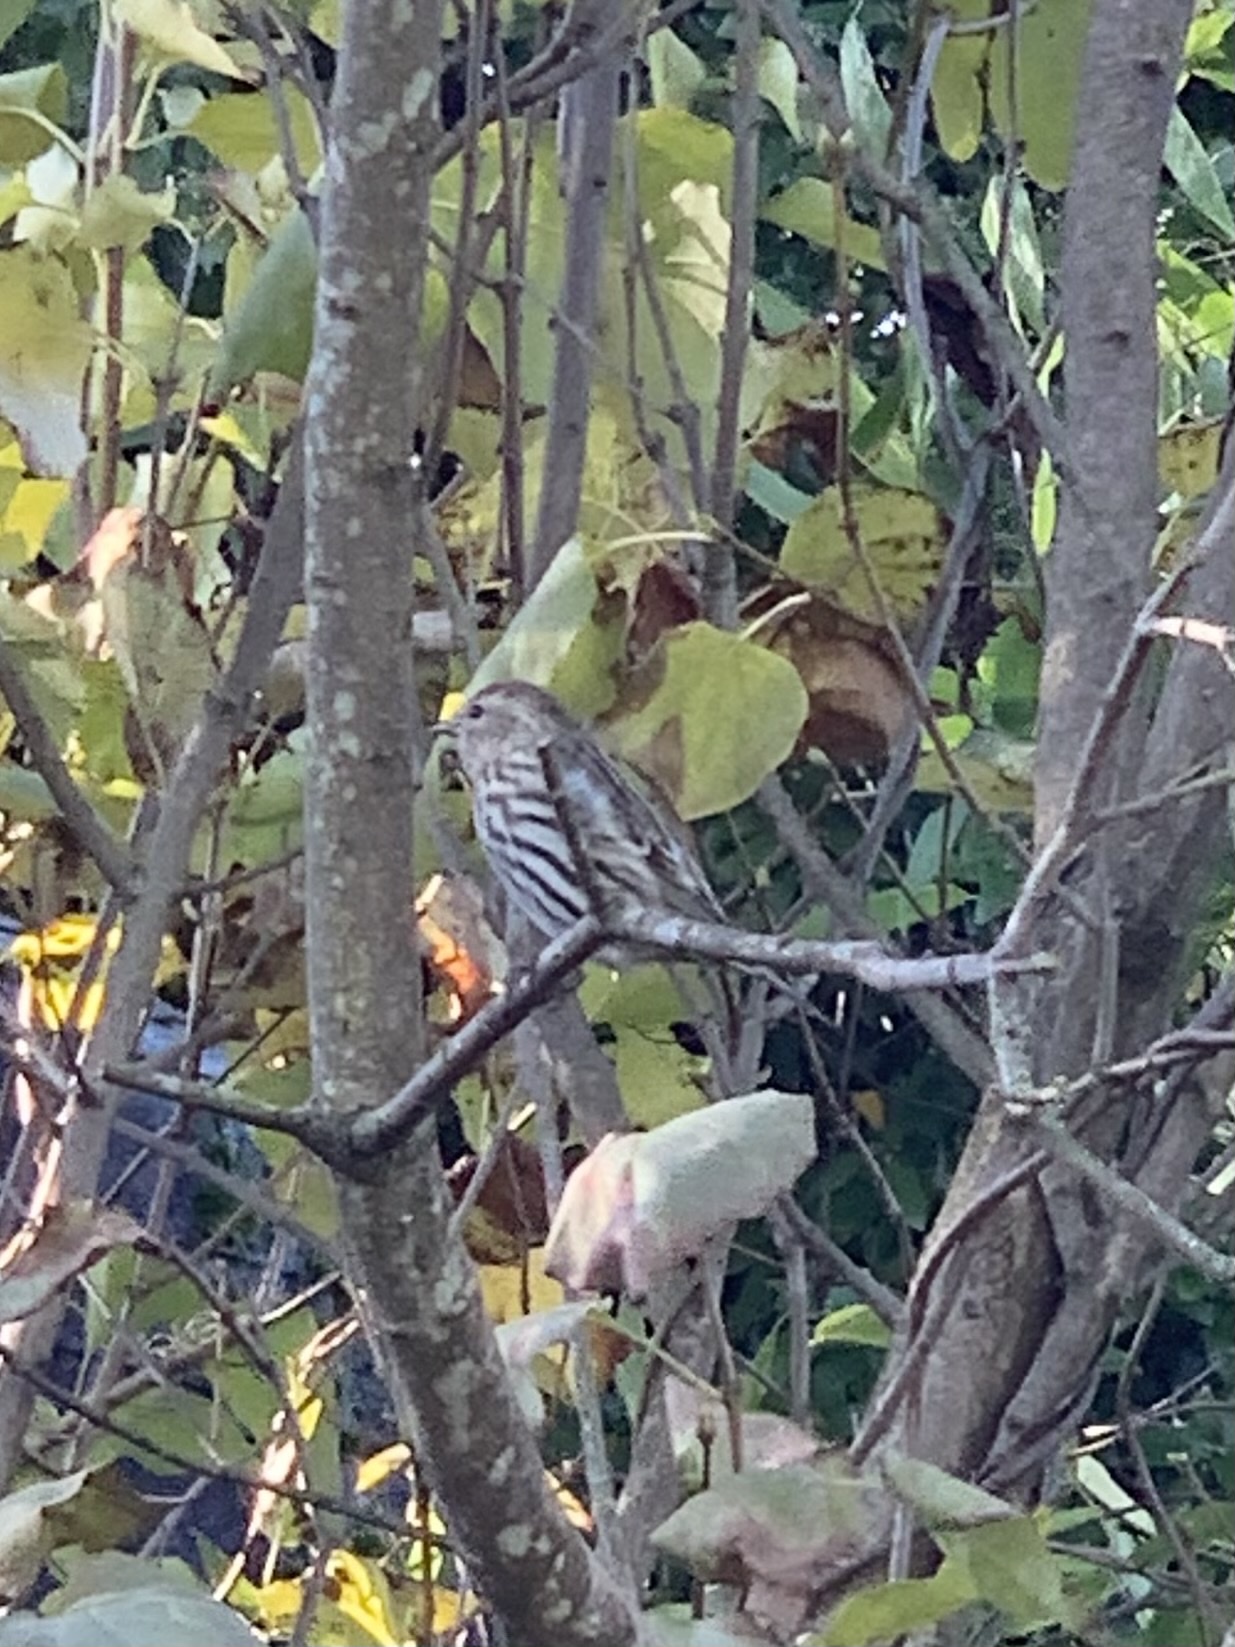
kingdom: Animalia
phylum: Chordata
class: Aves
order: Passeriformes
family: Fringillidae
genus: Spinus
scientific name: Spinus pinus
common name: Pine siskin
